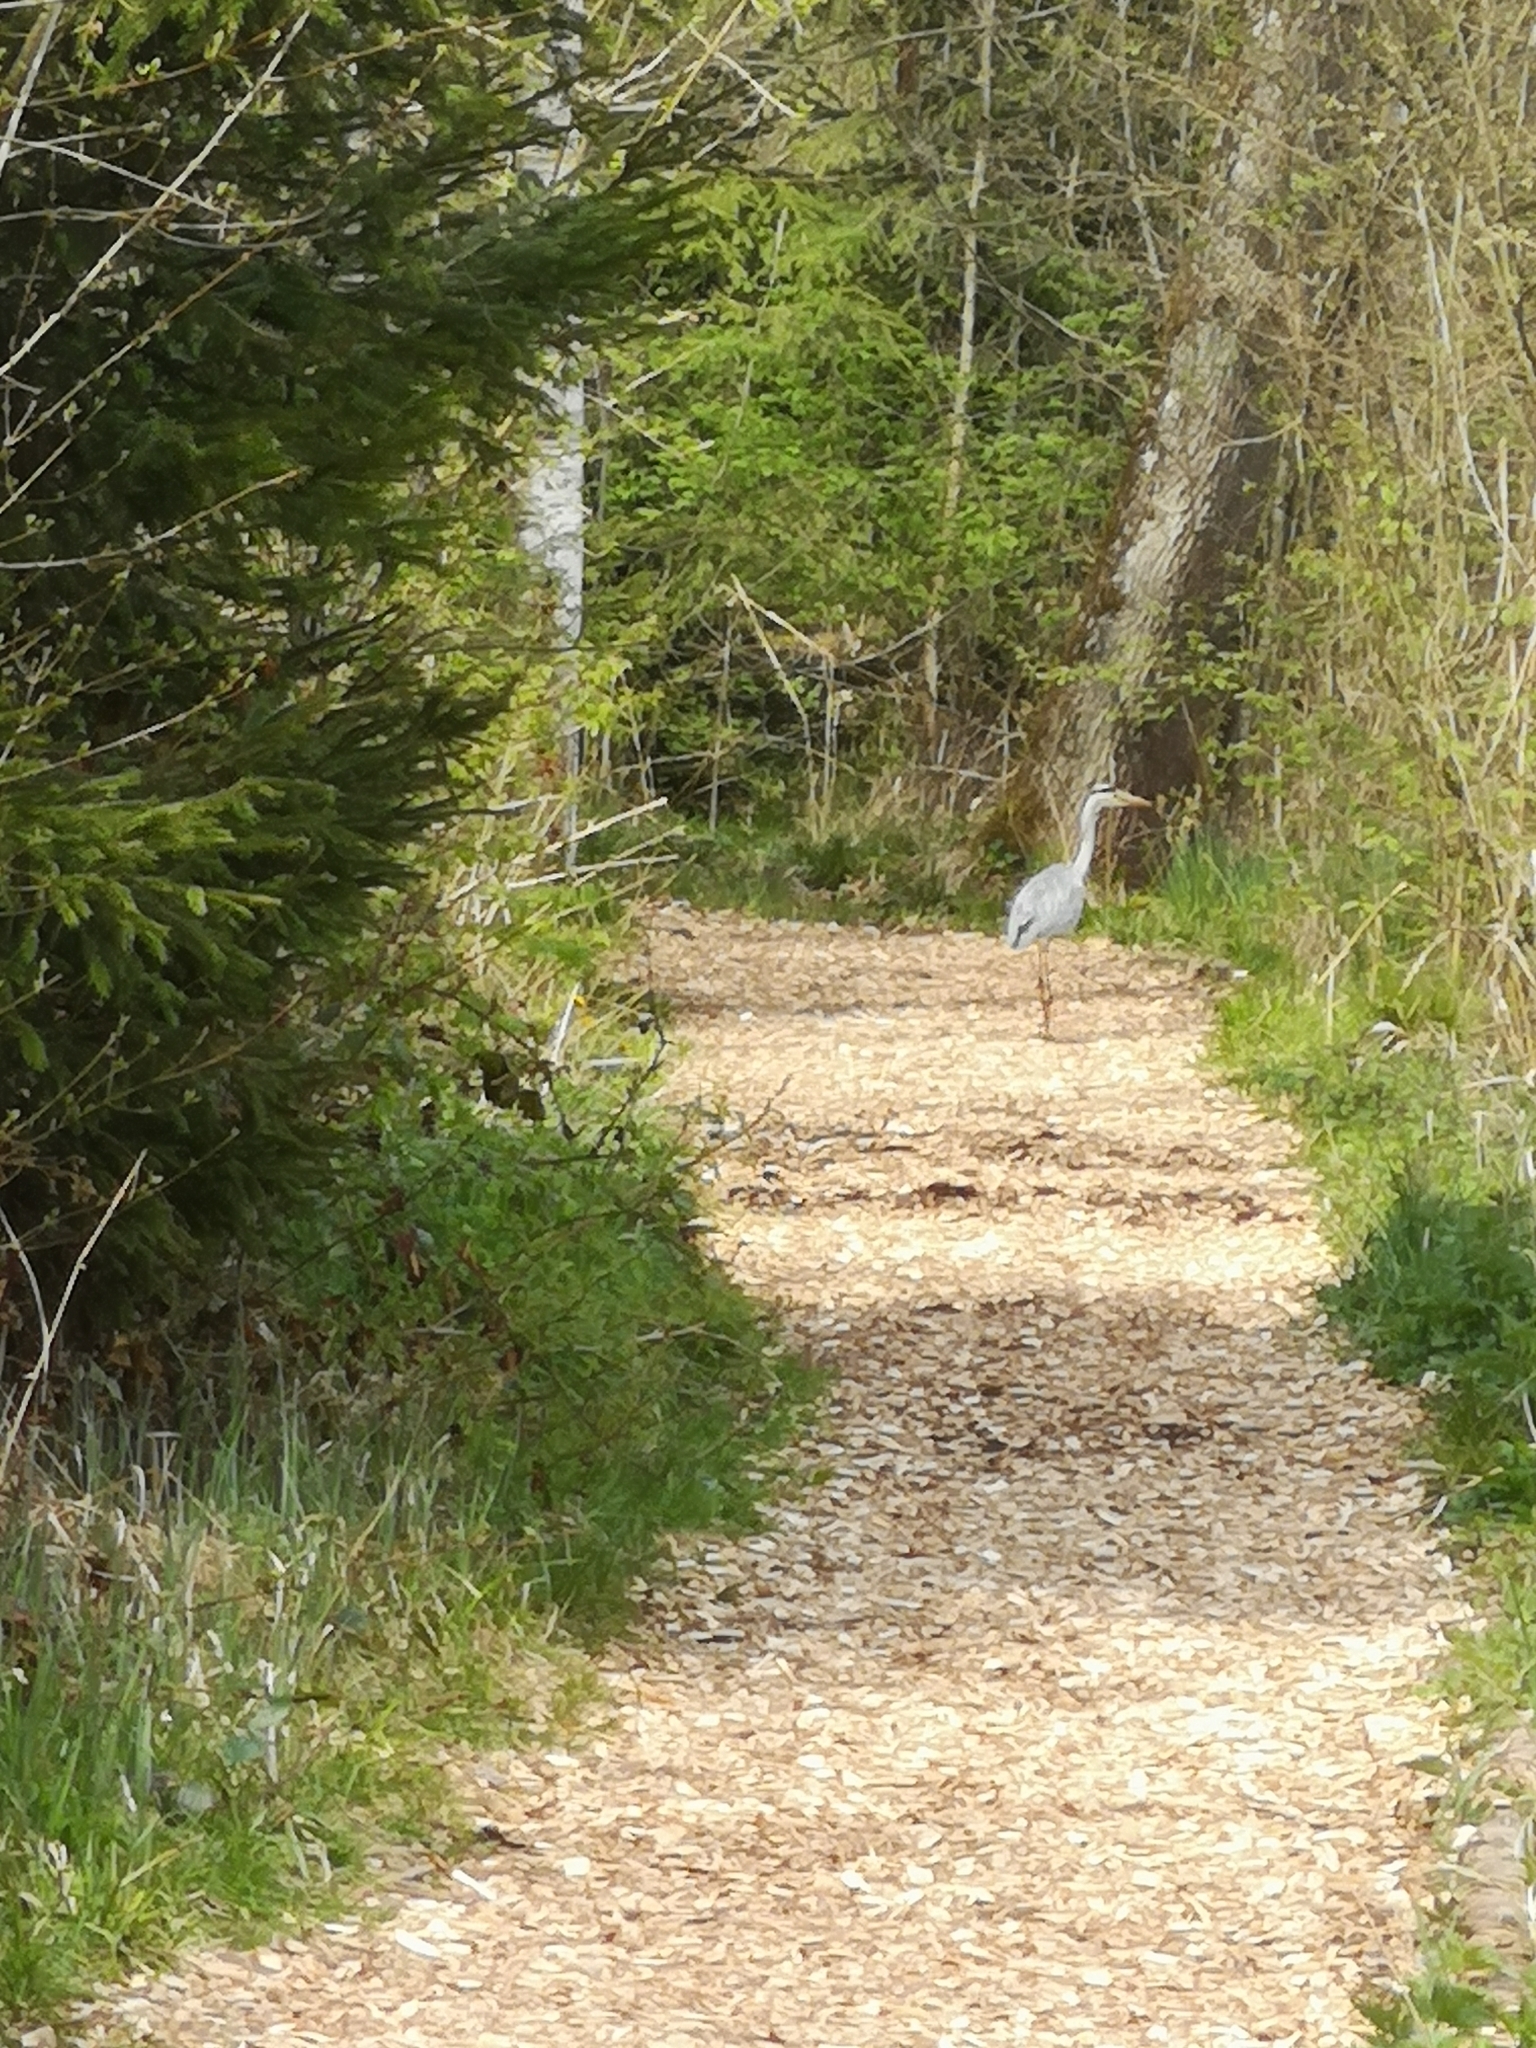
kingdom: Animalia
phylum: Chordata
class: Aves
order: Pelecaniformes
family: Ardeidae
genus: Ardea
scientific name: Ardea cinerea
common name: Grey heron
